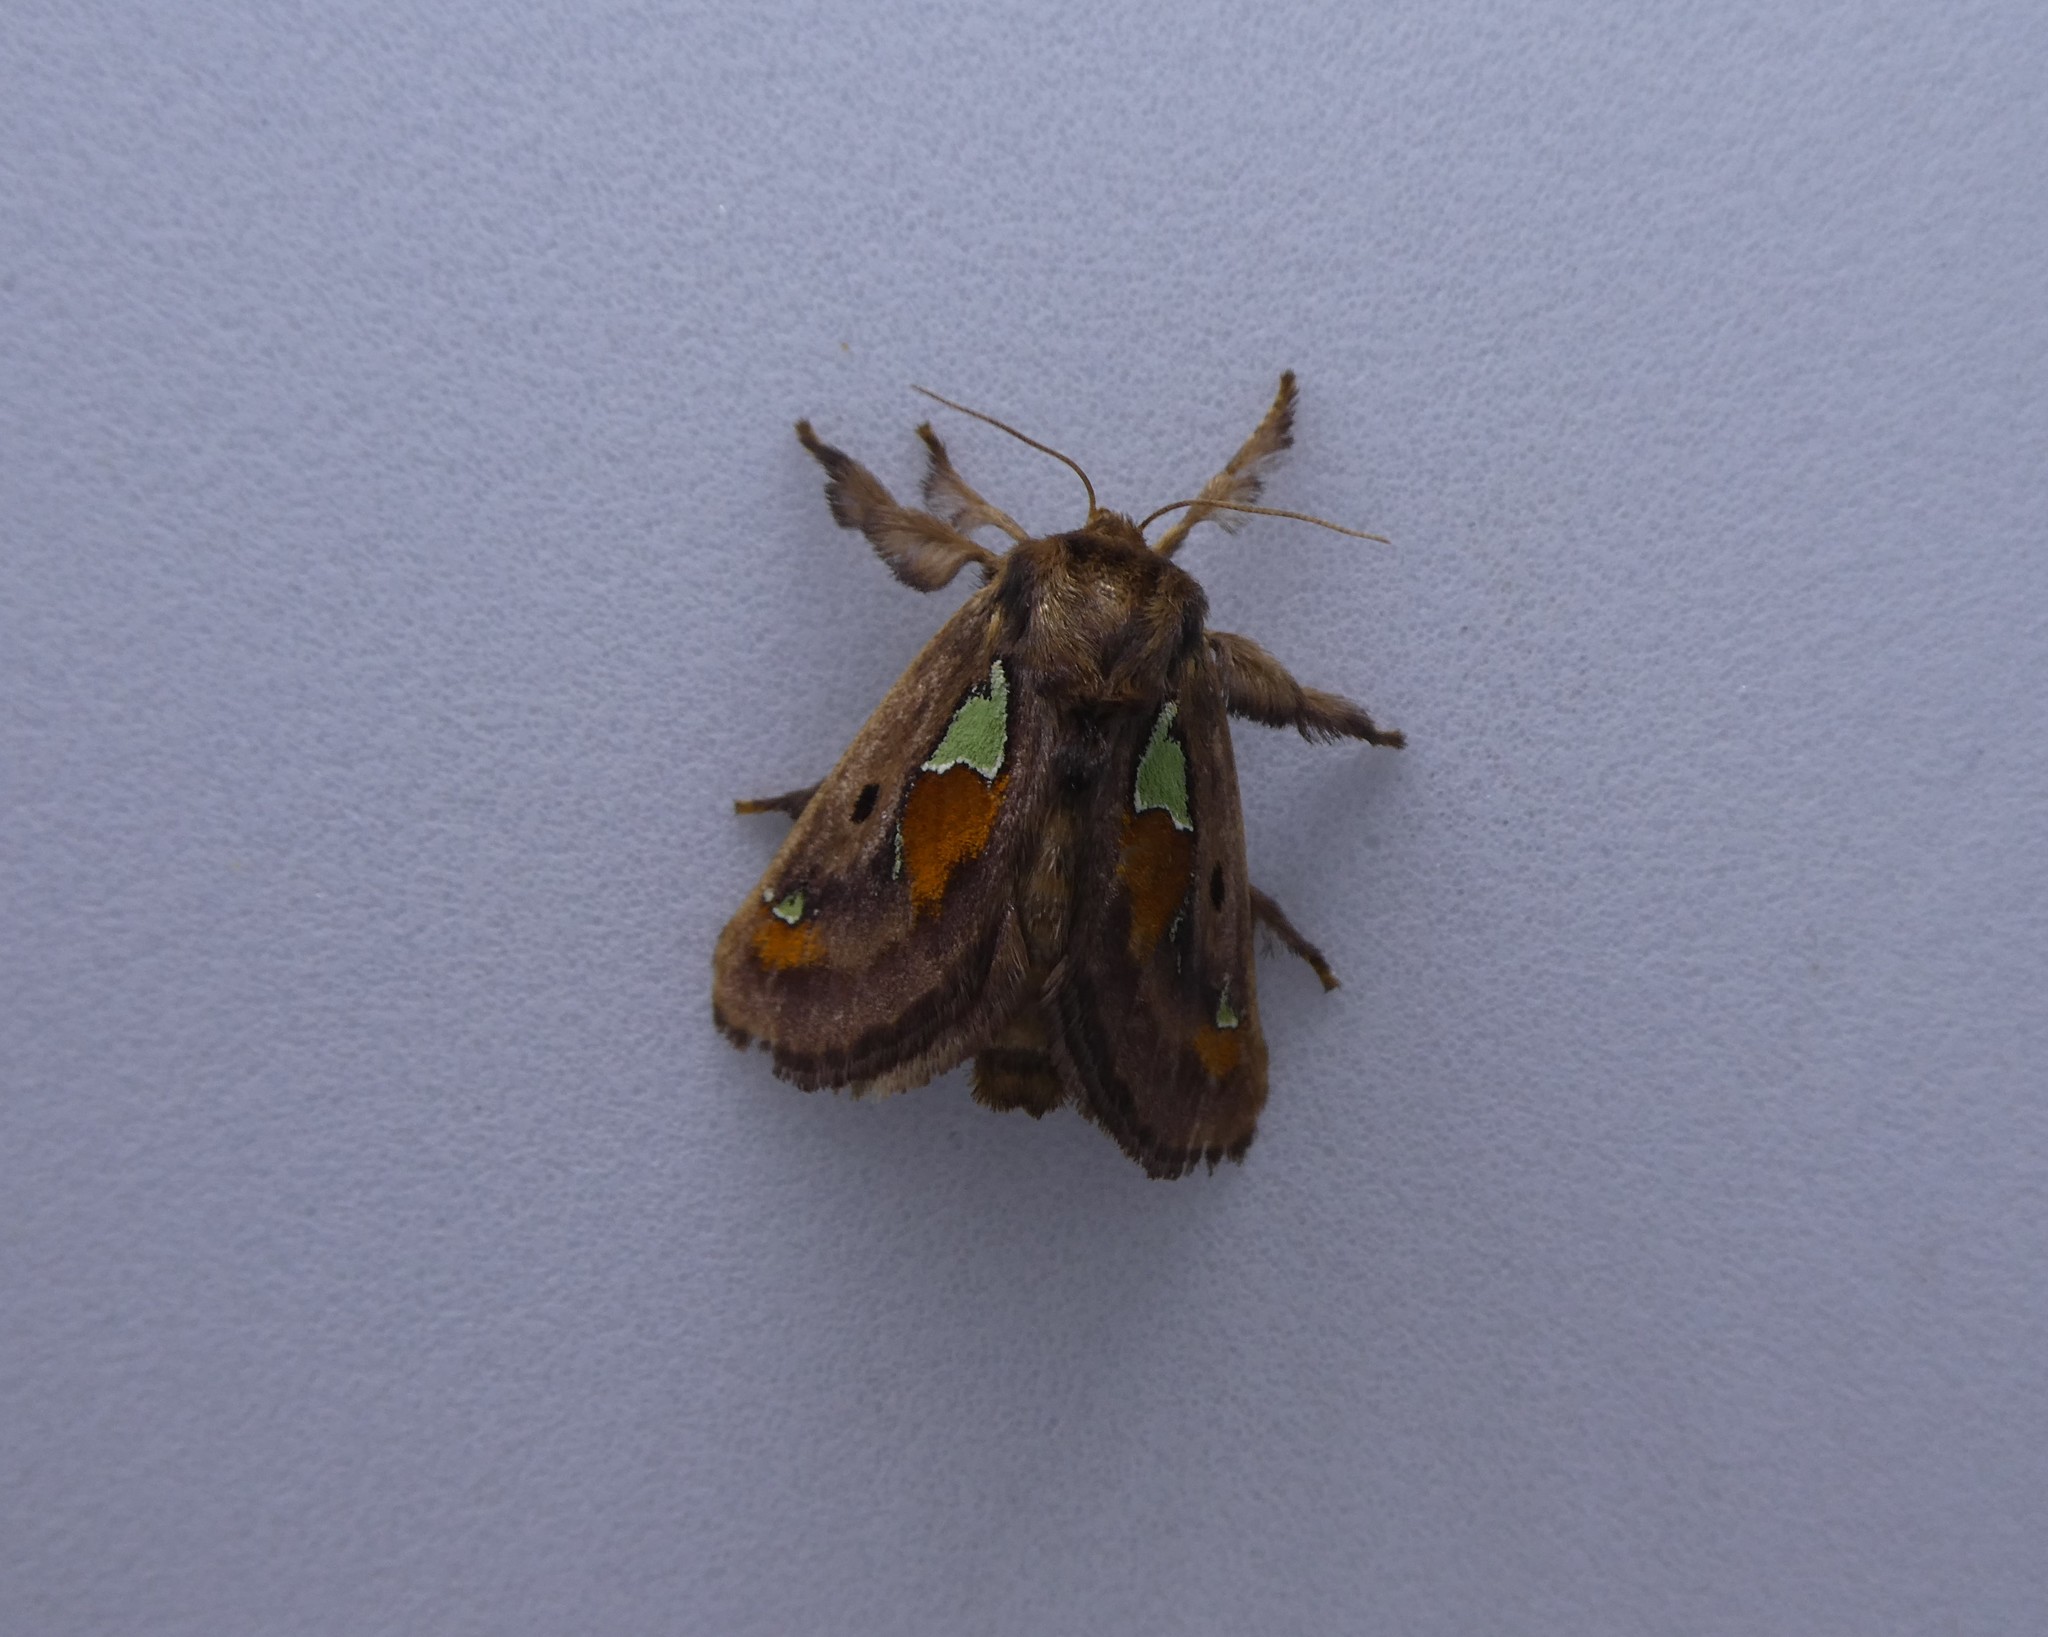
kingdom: Animalia
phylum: Arthropoda
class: Insecta
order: Lepidoptera
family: Limacodidae
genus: Euclea
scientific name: Euclea delphinii
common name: Spiny oak-slug moth
